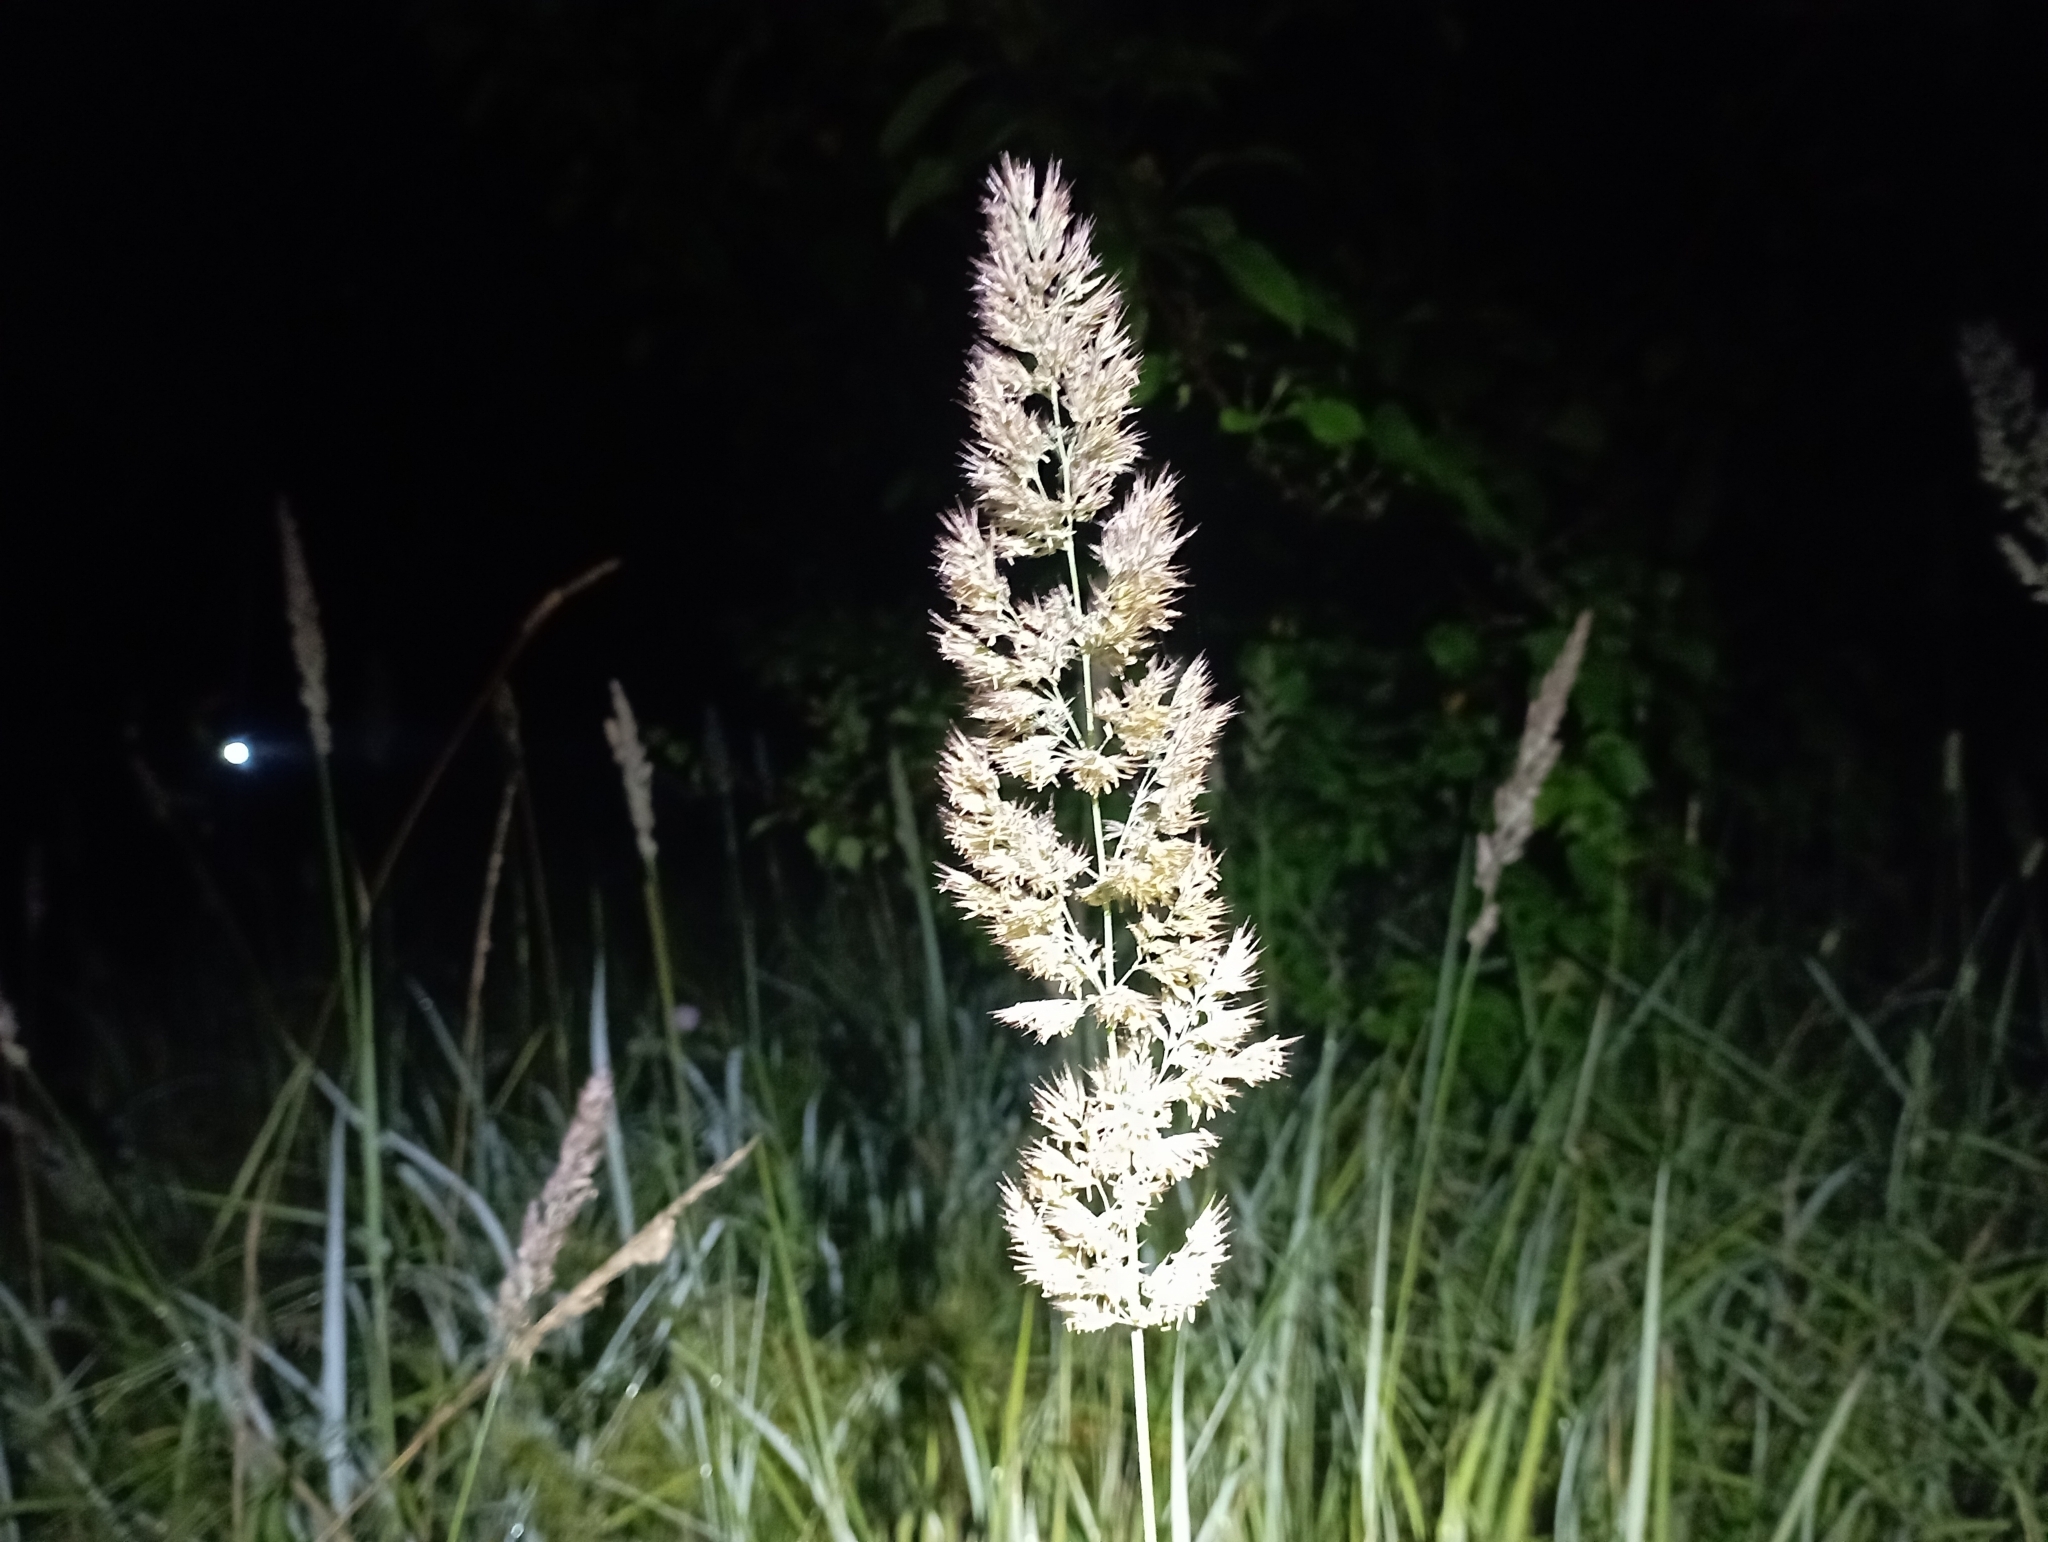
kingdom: Plantae
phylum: Tracheophyta
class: Liliopsida
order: Poales
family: Poaceae
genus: Calamagrostis
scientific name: Calamagrostis epigejos
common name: Wood small-reed
